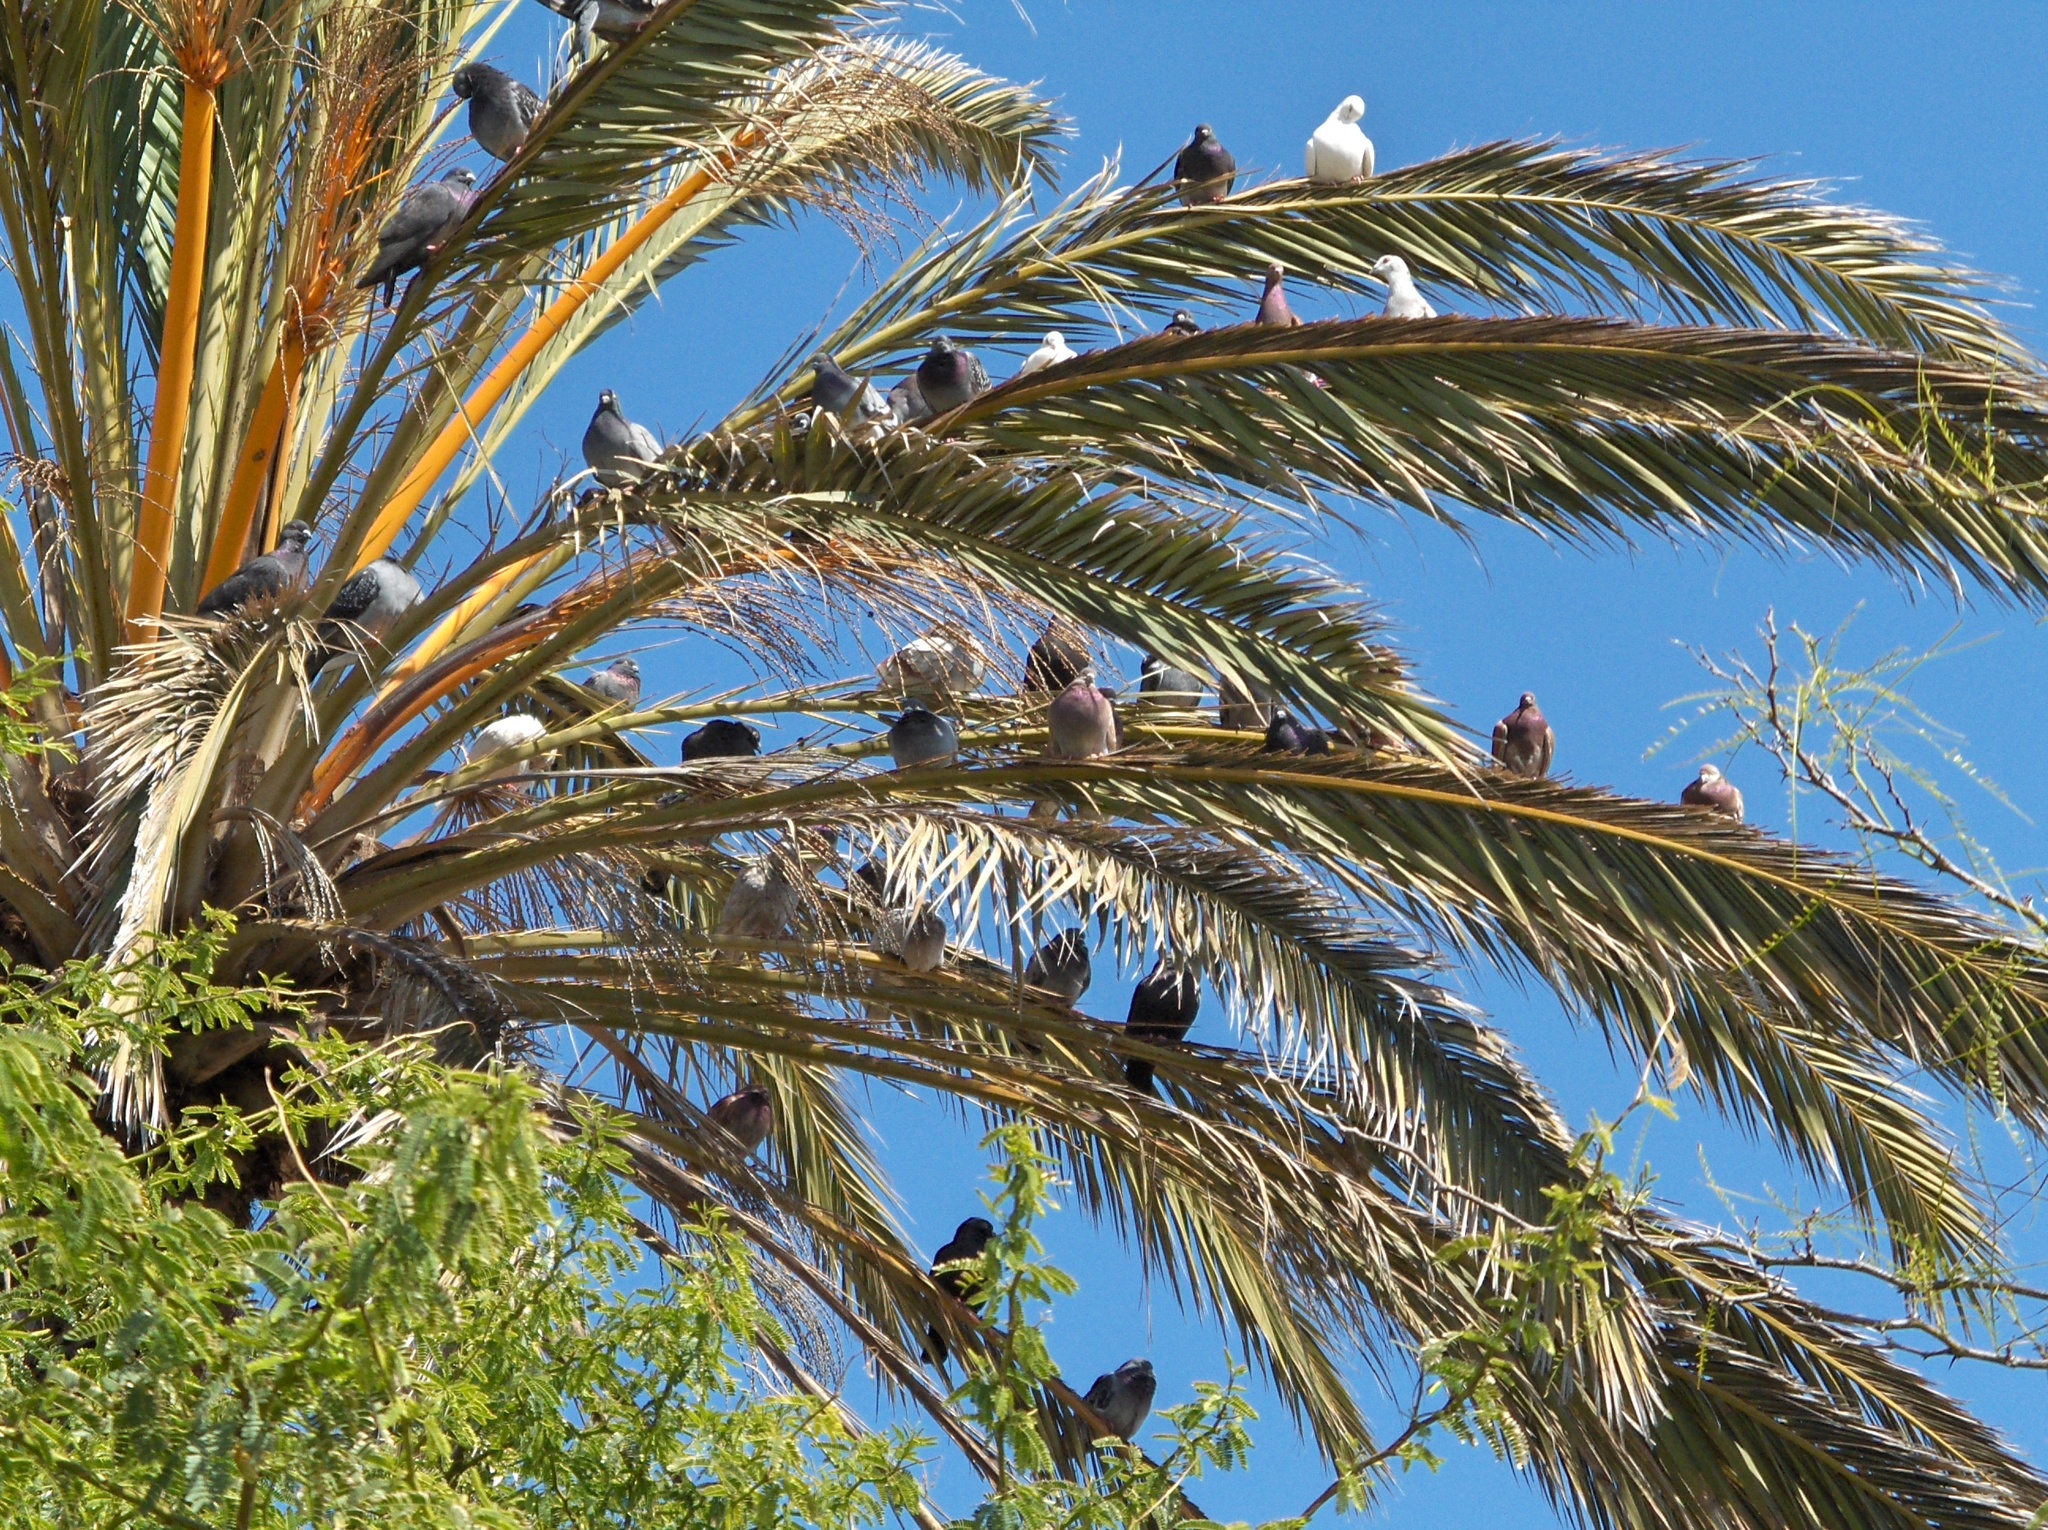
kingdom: Animalia
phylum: Chordata
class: Aves
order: Columbiformes
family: Columbidae
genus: Columba
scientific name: Columba livia
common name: Rock pigeon
